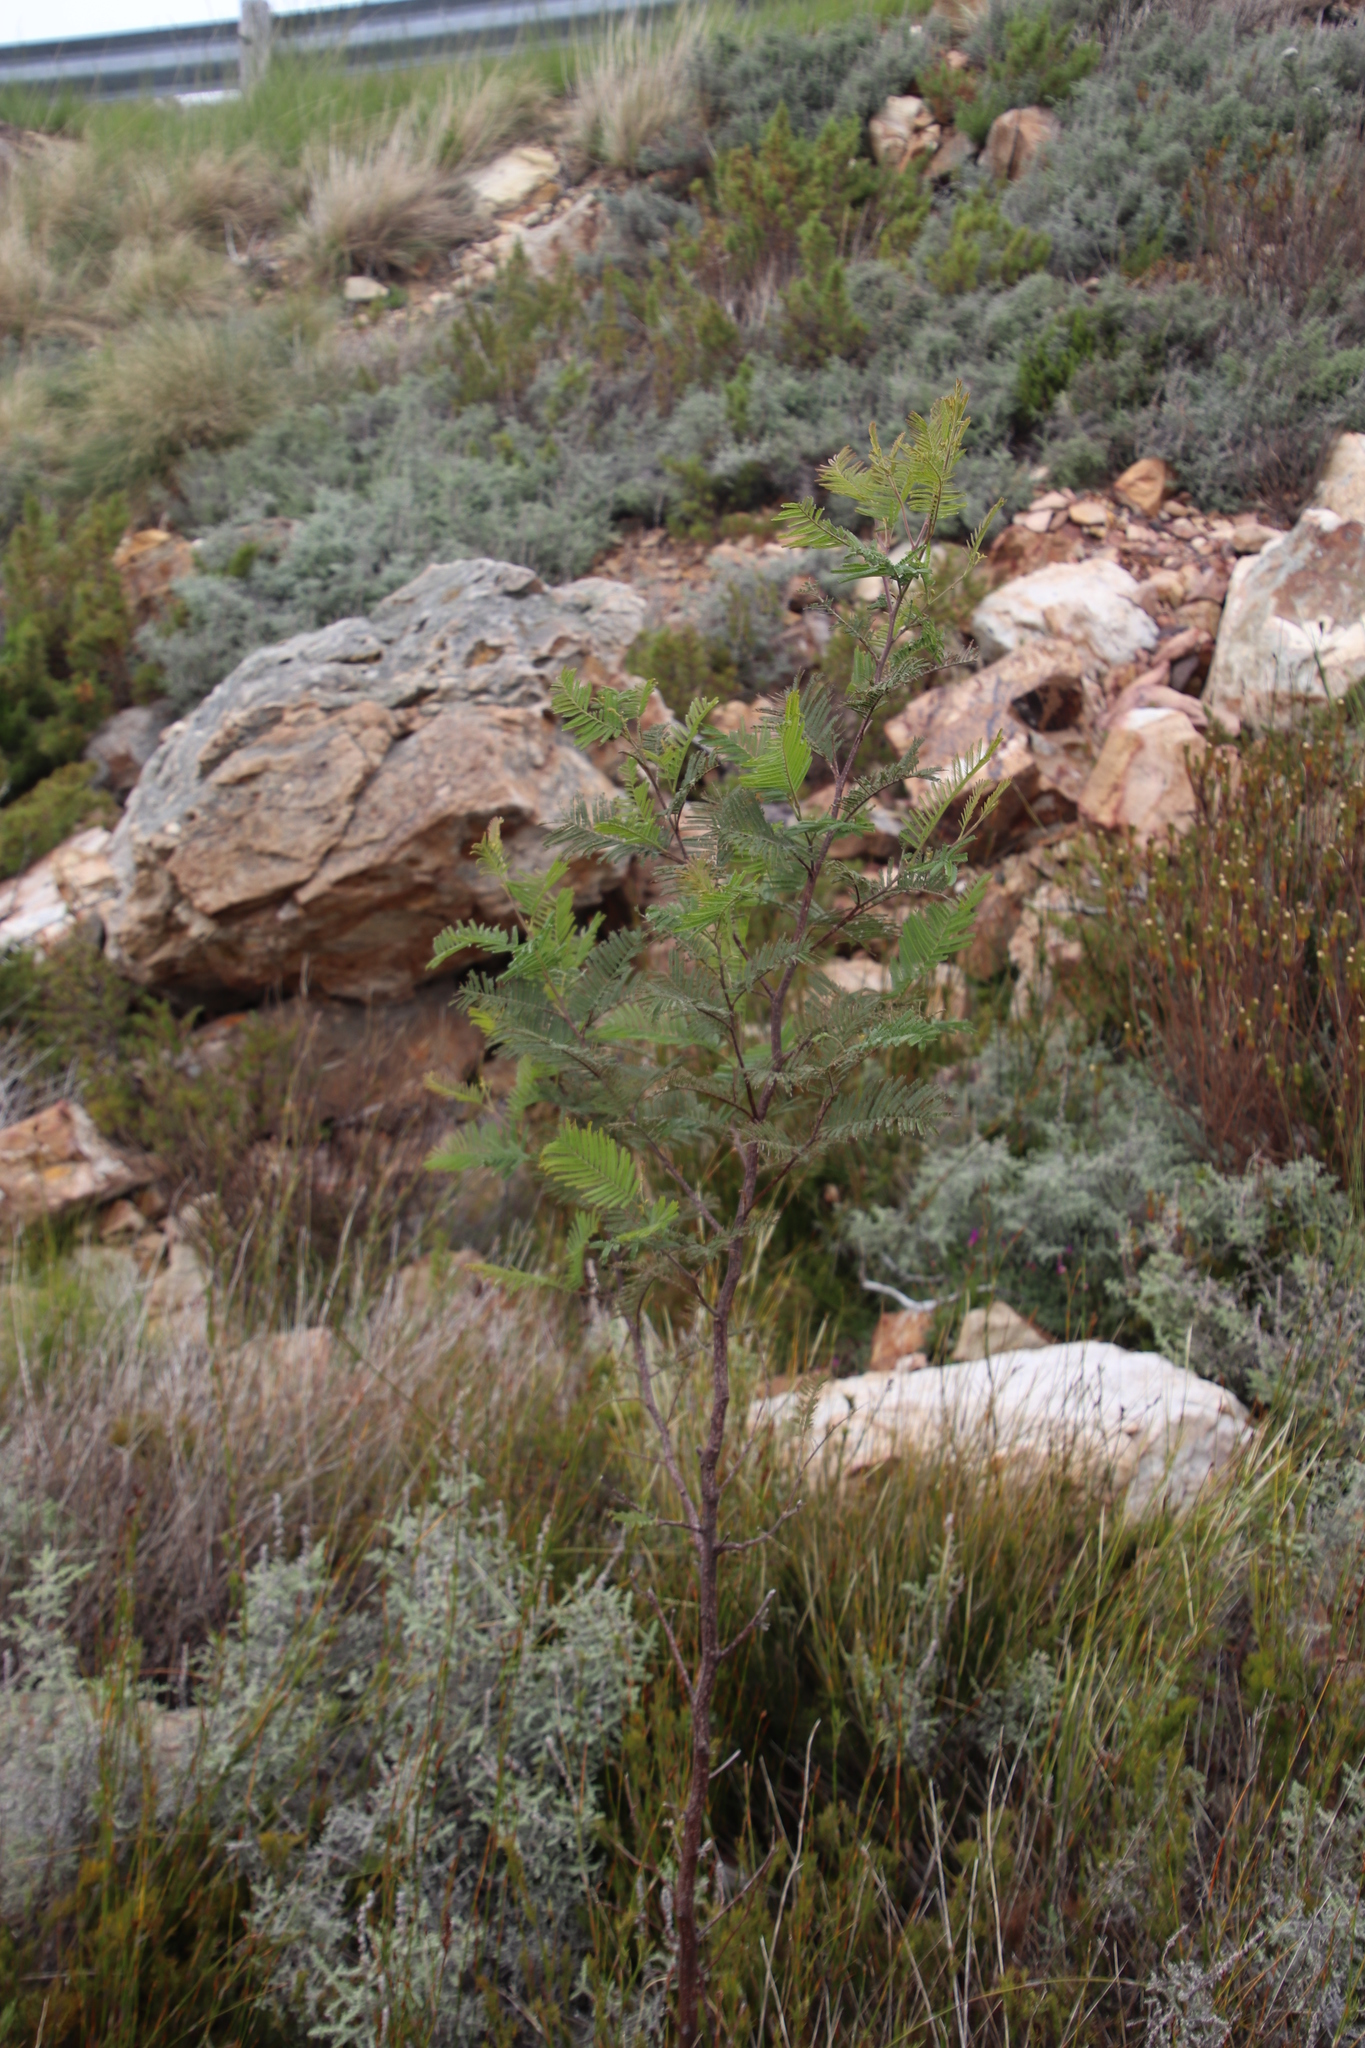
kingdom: Plantae
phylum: Tracheophyta
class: Magnoliopsida
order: Fabales
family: Fabaceae
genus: Acacia
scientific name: Acacia mearnsii
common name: Black wattle
